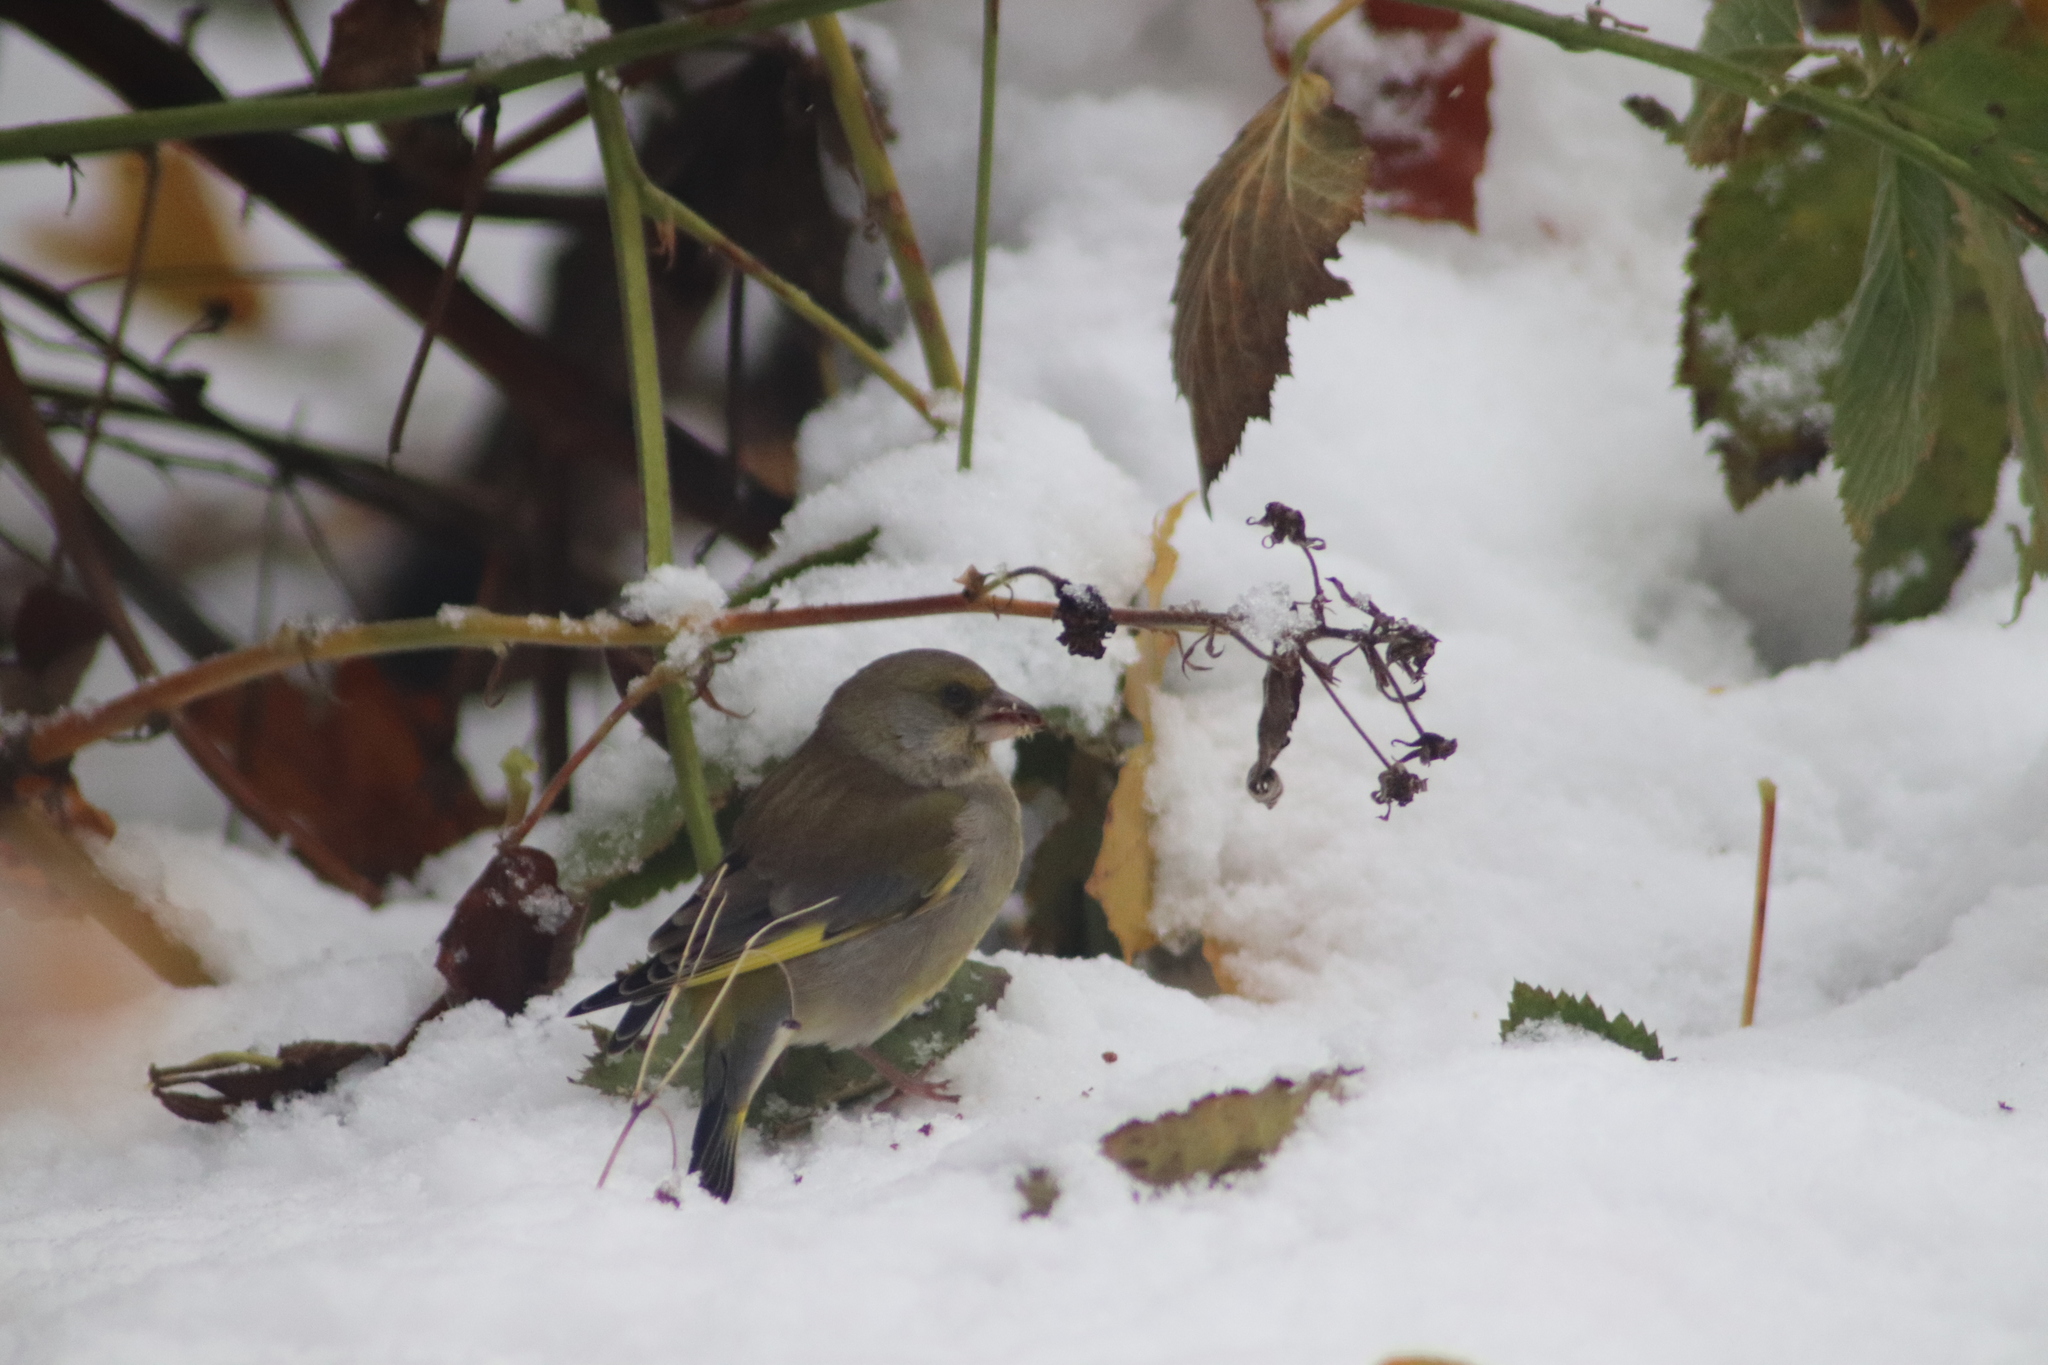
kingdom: Plantae
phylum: Tracheophyta
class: Liliopsida
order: Poales
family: Poaceae
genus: Chloris
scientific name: Chloris chloris
